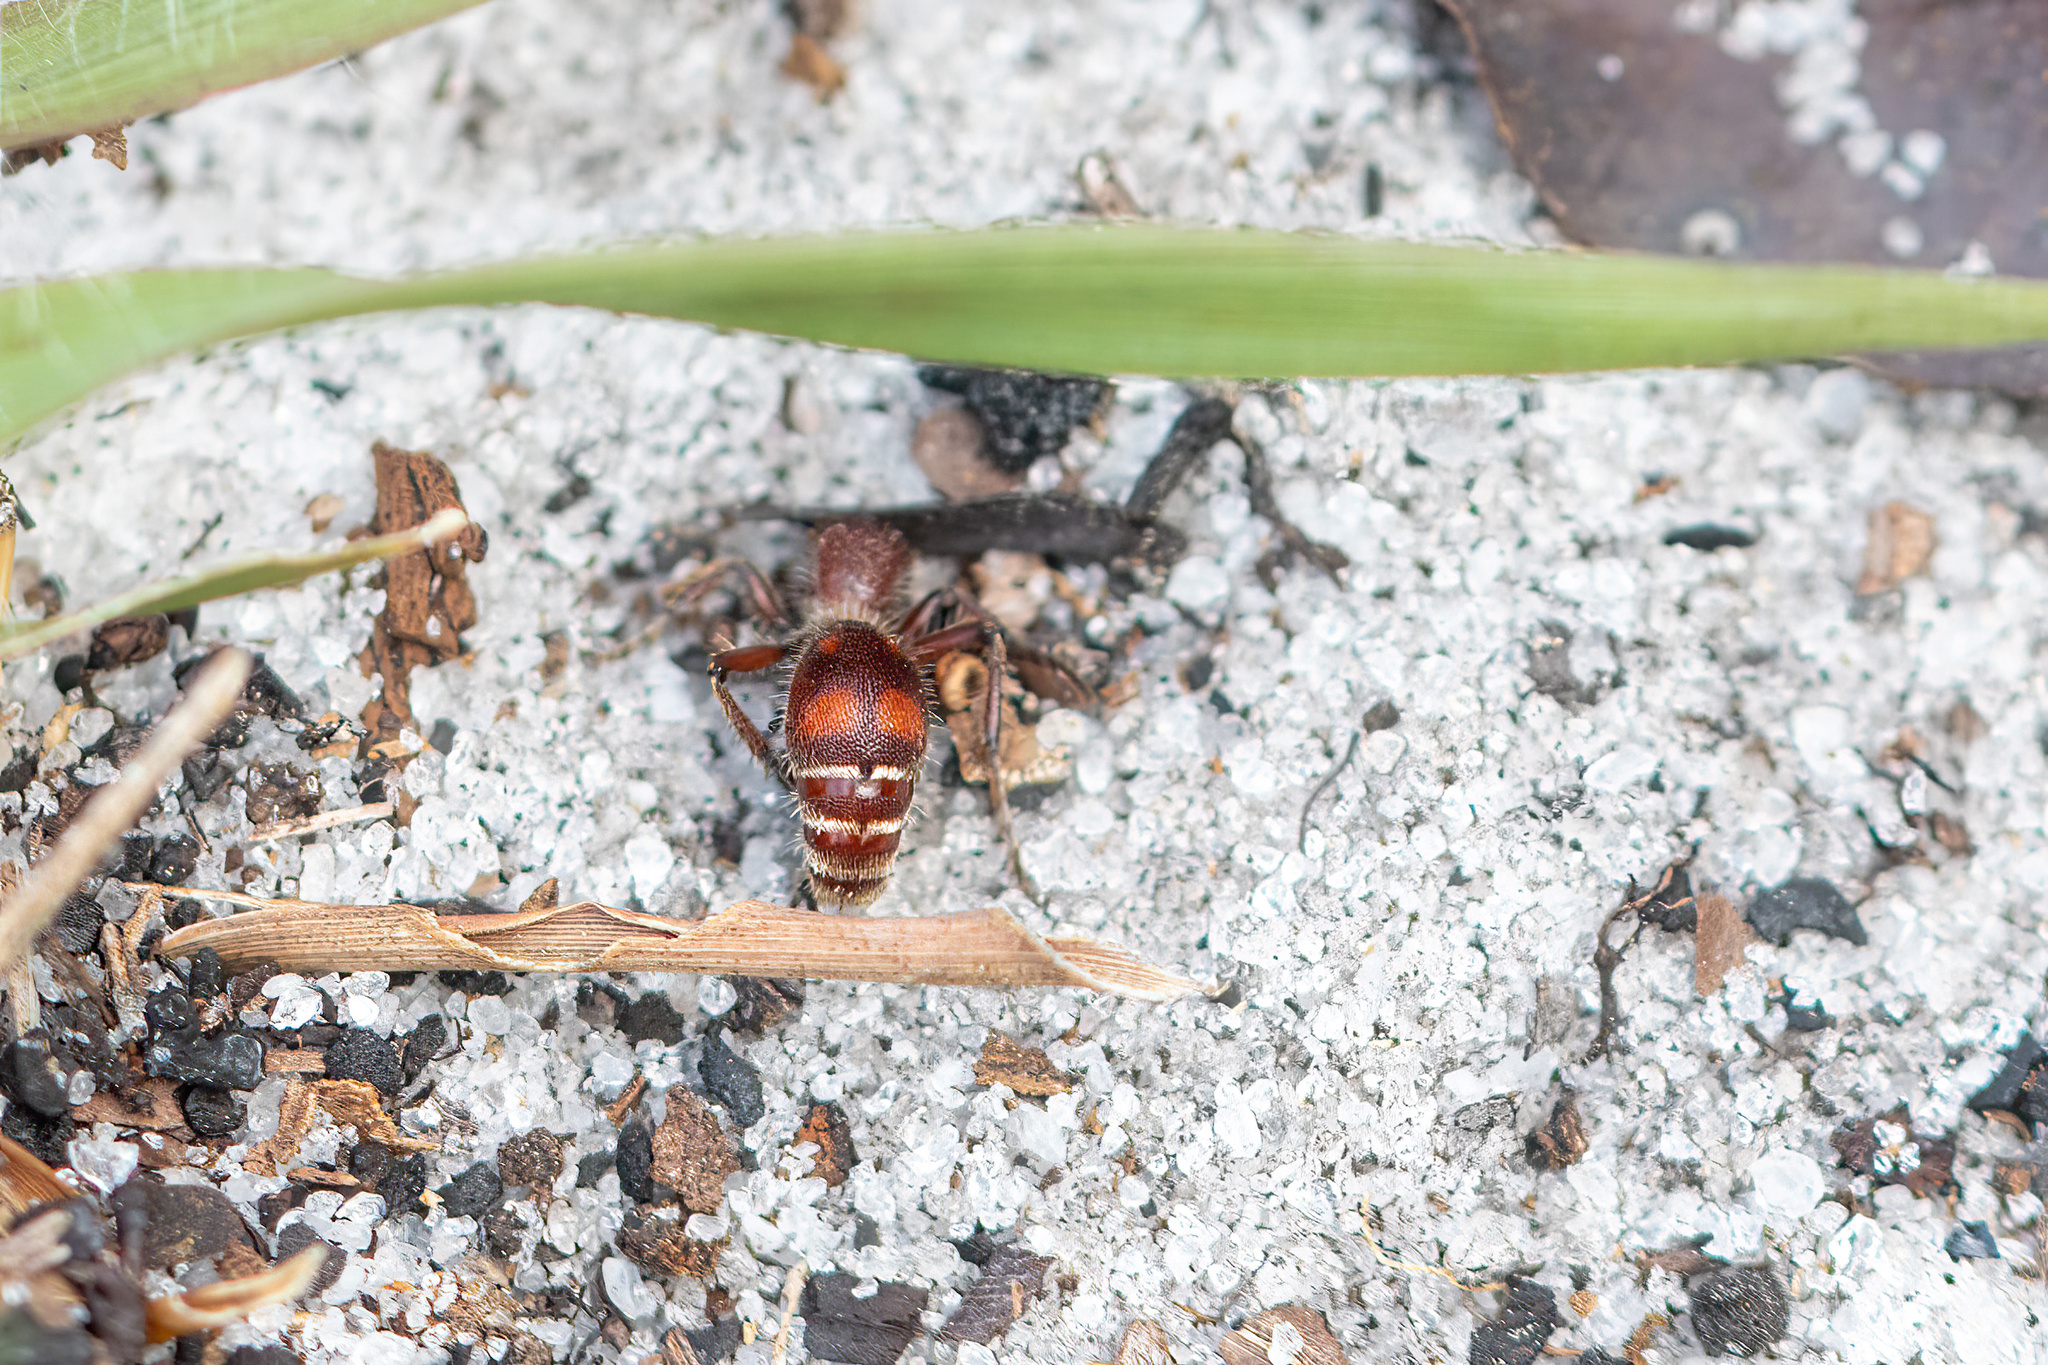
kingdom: Animalia
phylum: Arthropoda
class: Insecta
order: Hymenoptera
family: Mutillidae
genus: Dasymutilla
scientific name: Dasymutilla
